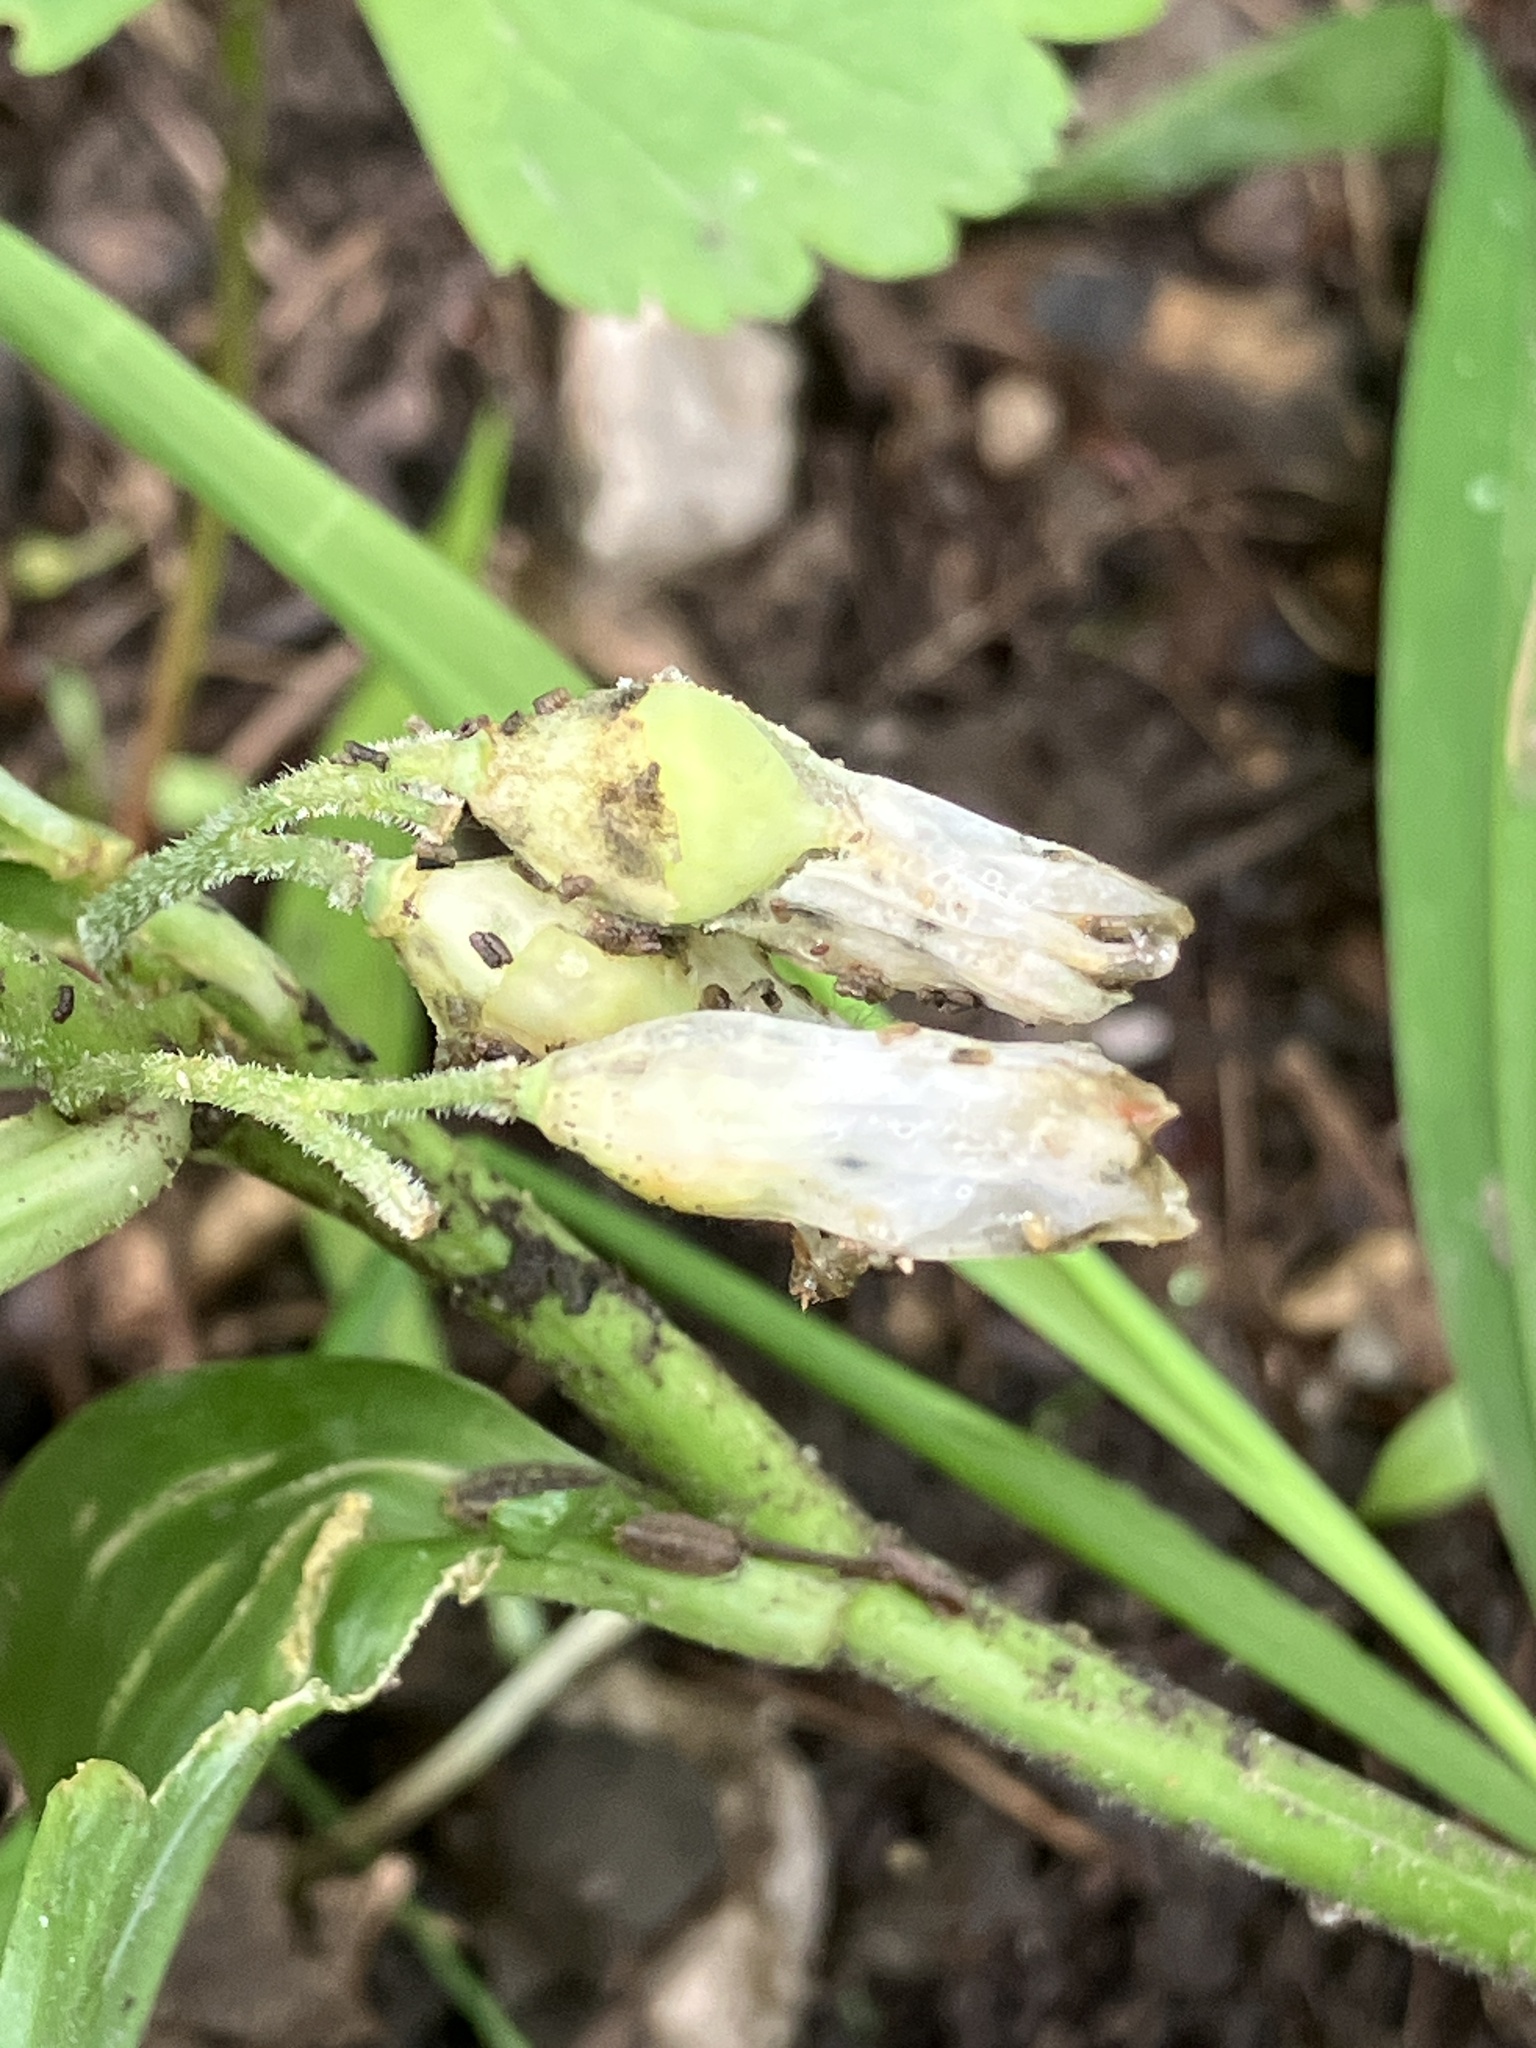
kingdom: Plantae
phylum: Tracheophyta
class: Liliopsida
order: Asparagales
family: Asparagaceae
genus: Polygonatum
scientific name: Polygonatum latifolium
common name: Broadleaf solomon's seal
